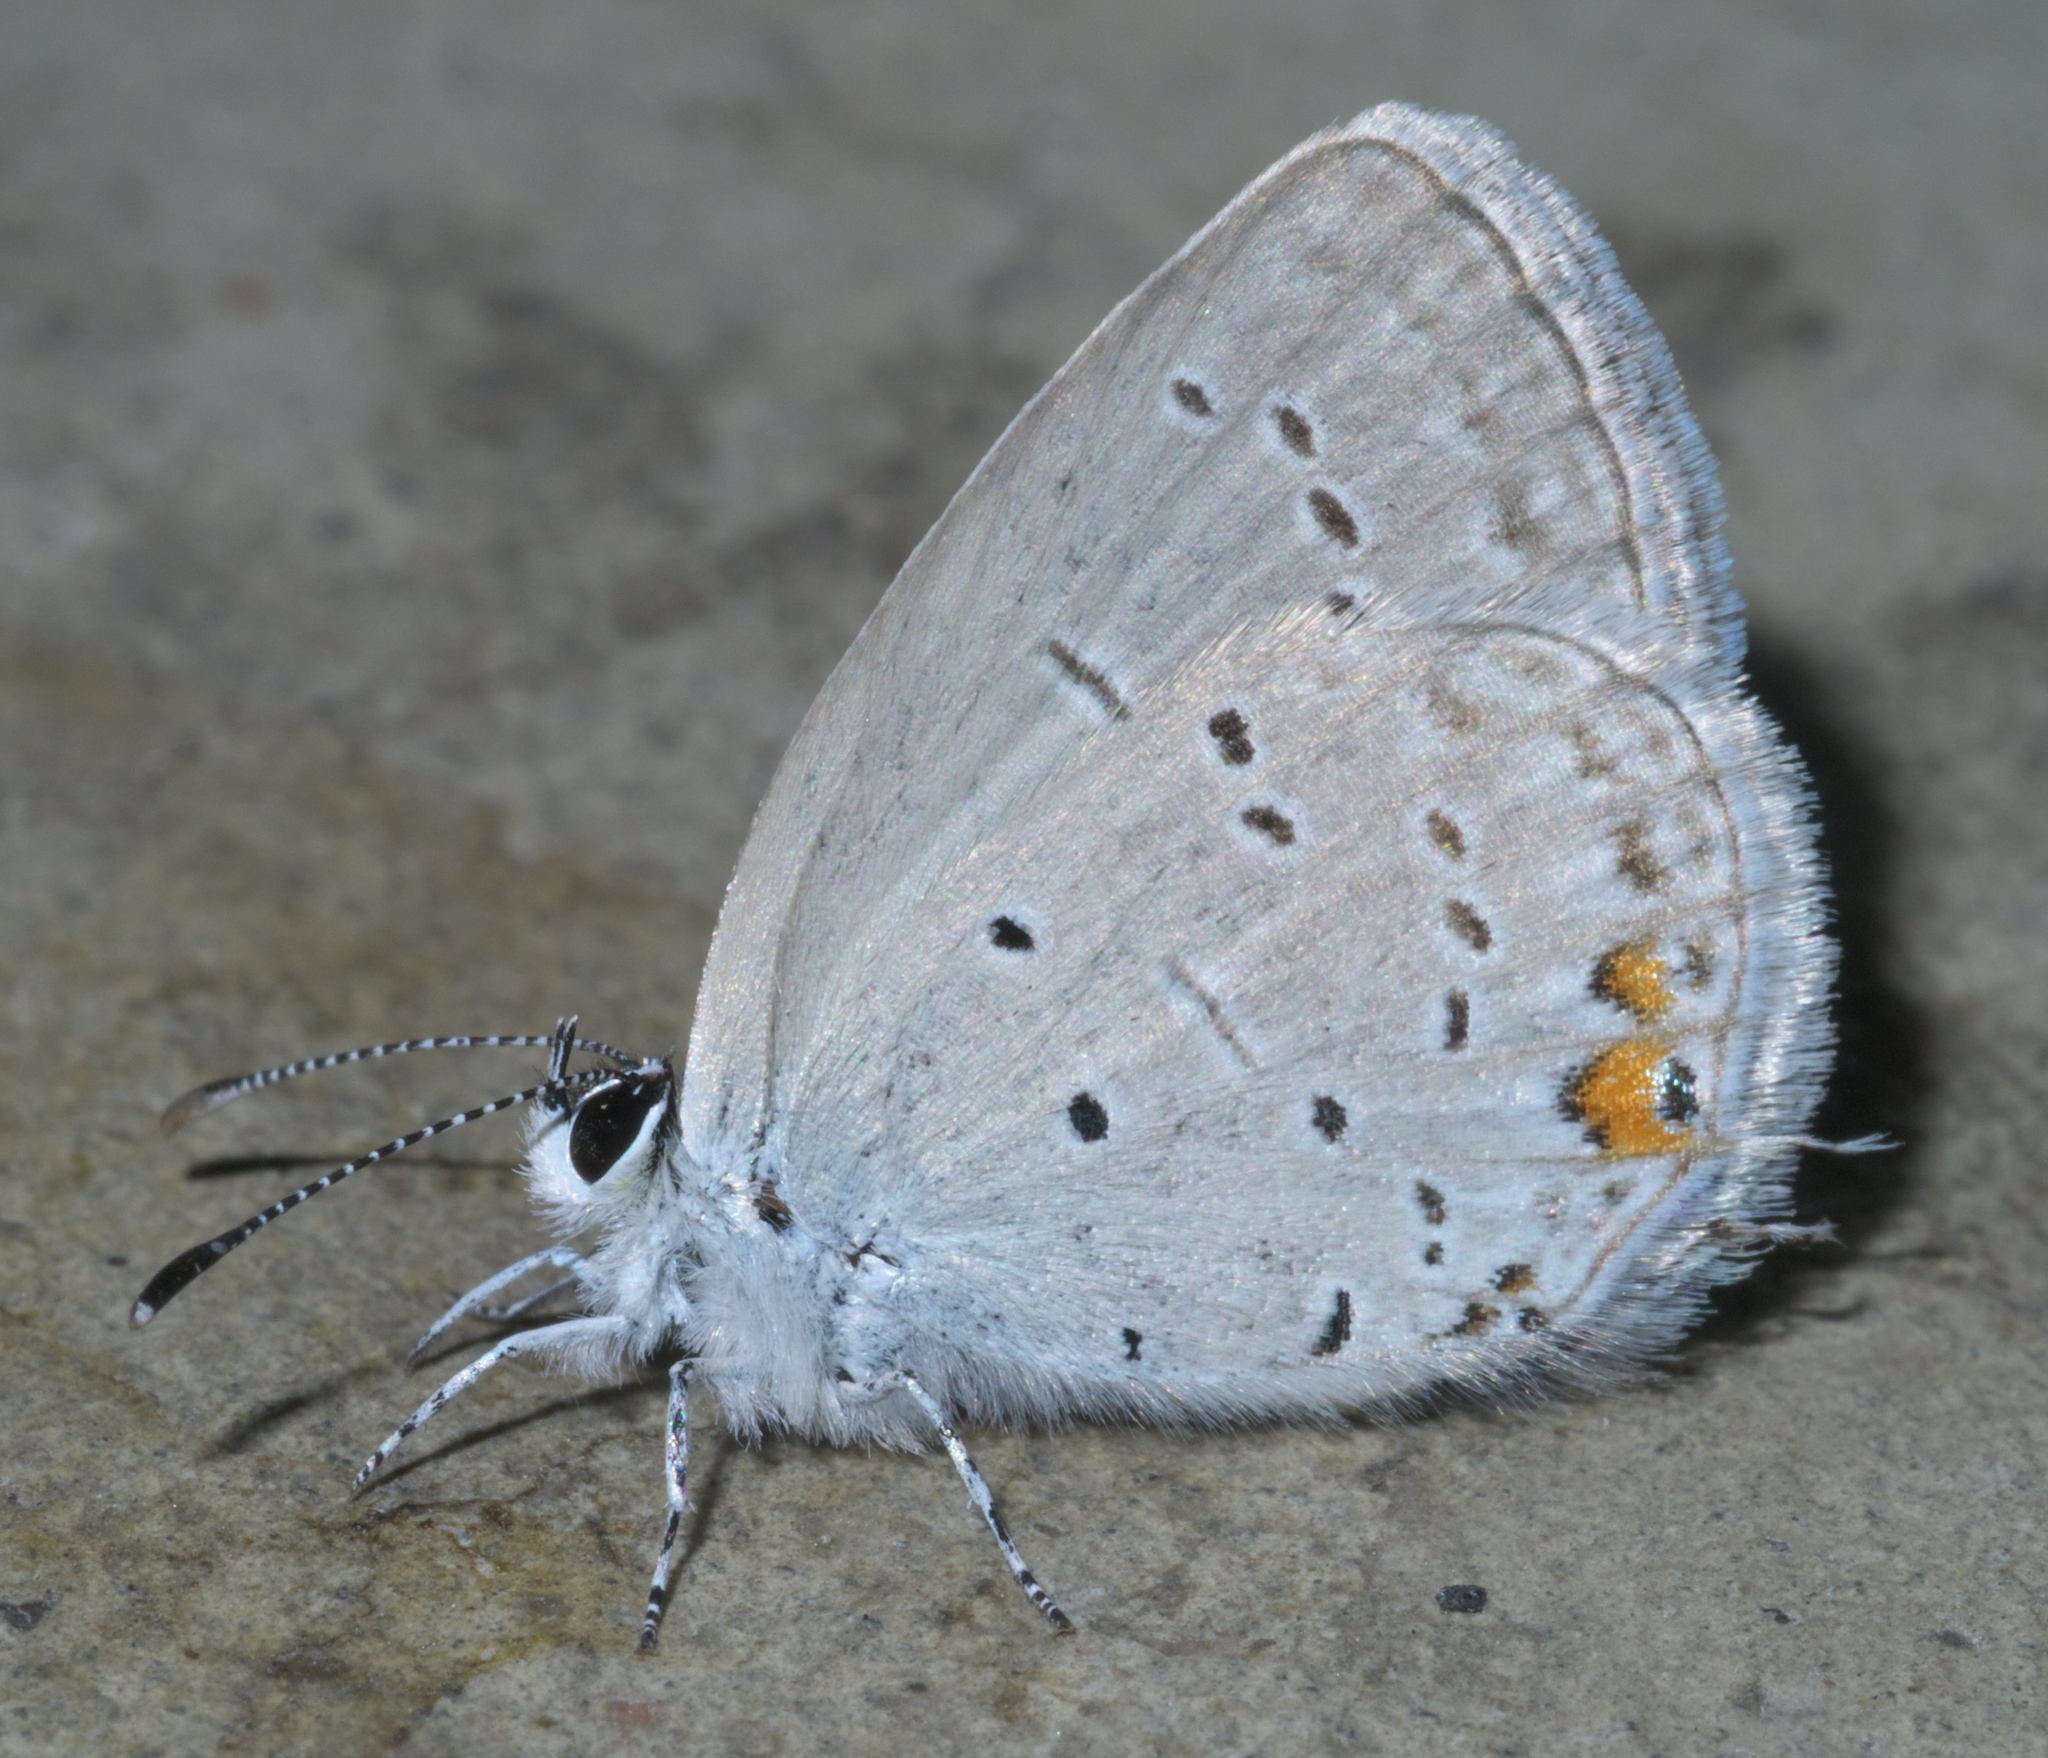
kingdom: Animalia
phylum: Arthropoda
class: Insecta
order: Lepidoptera
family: Lycaenidae
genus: Elkalyce
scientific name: Elkalyce comyntas
